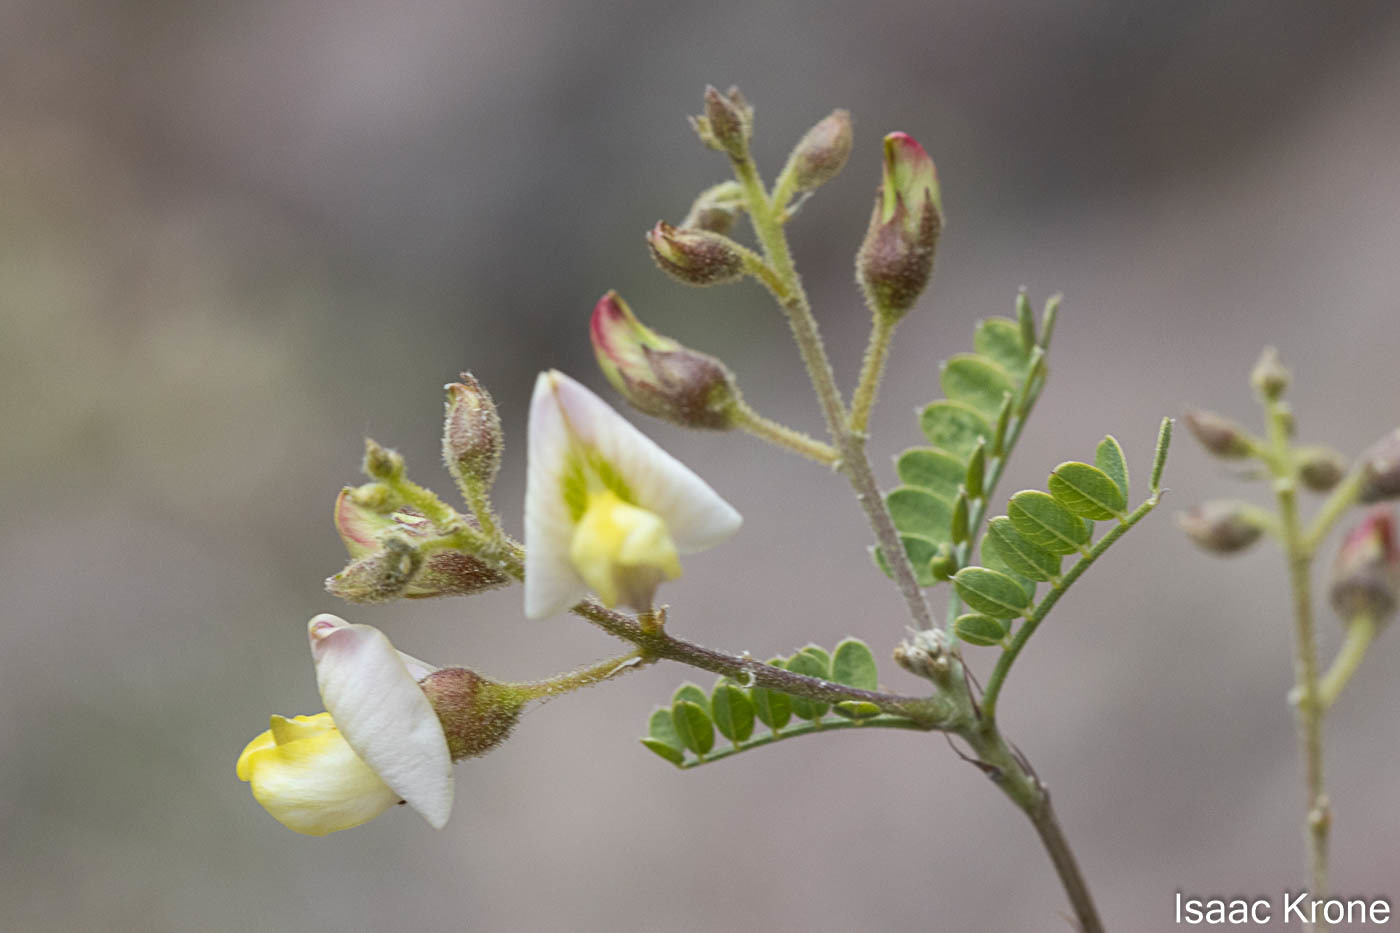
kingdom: Plantae
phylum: Tracheophyta
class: Magnoliopsida
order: Fabales
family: Fabaceae
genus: Coursetia
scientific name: Coursetia glandulosa
